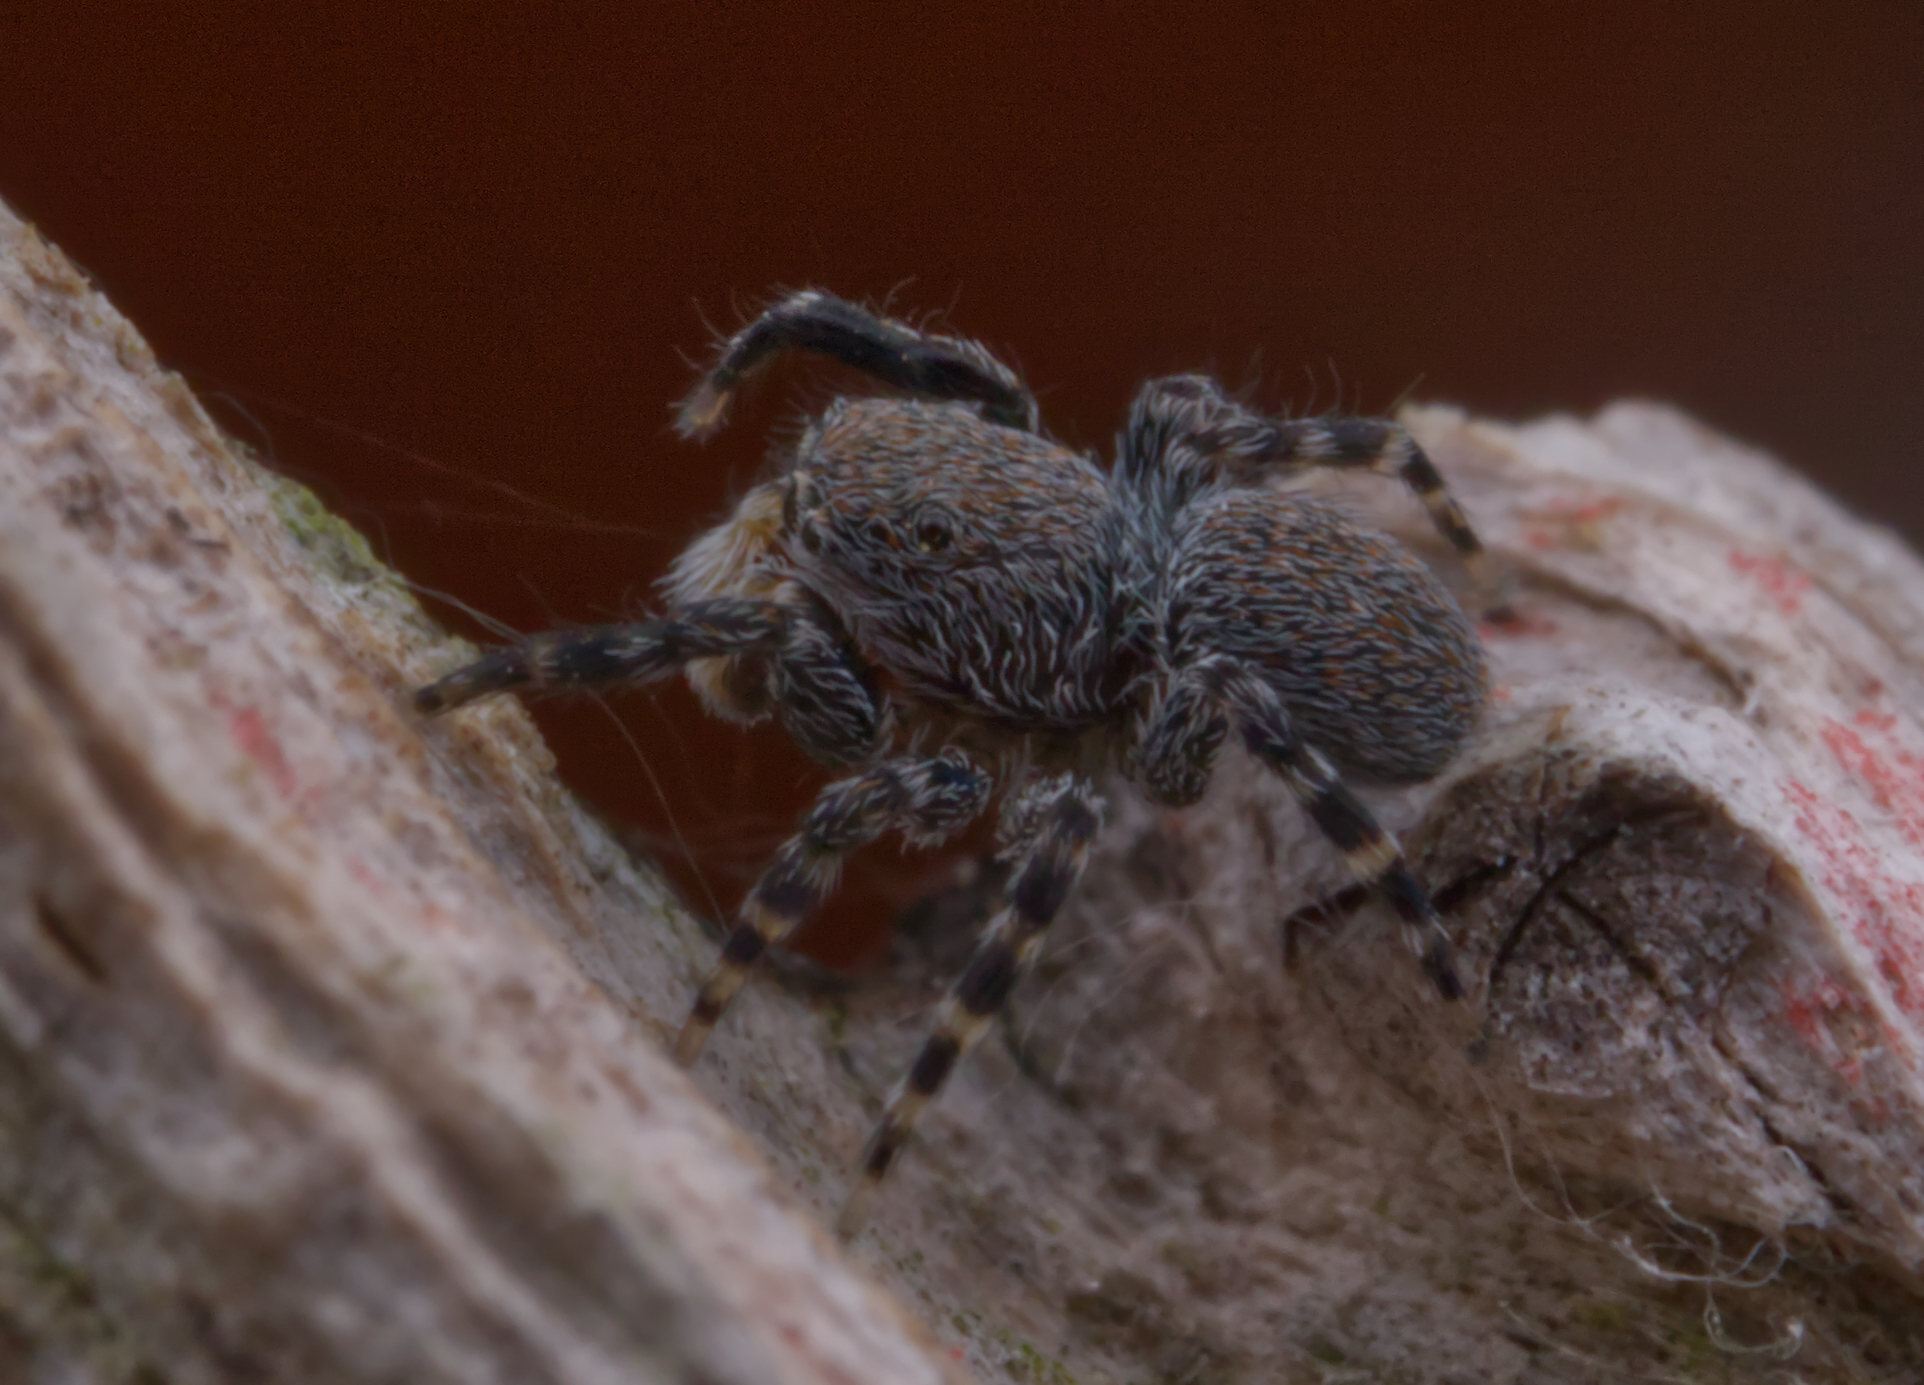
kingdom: Animalia
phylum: Arthropoda
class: Arachnida
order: Araneae
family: Salticidae
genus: Talavera
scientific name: Talavera minuta
